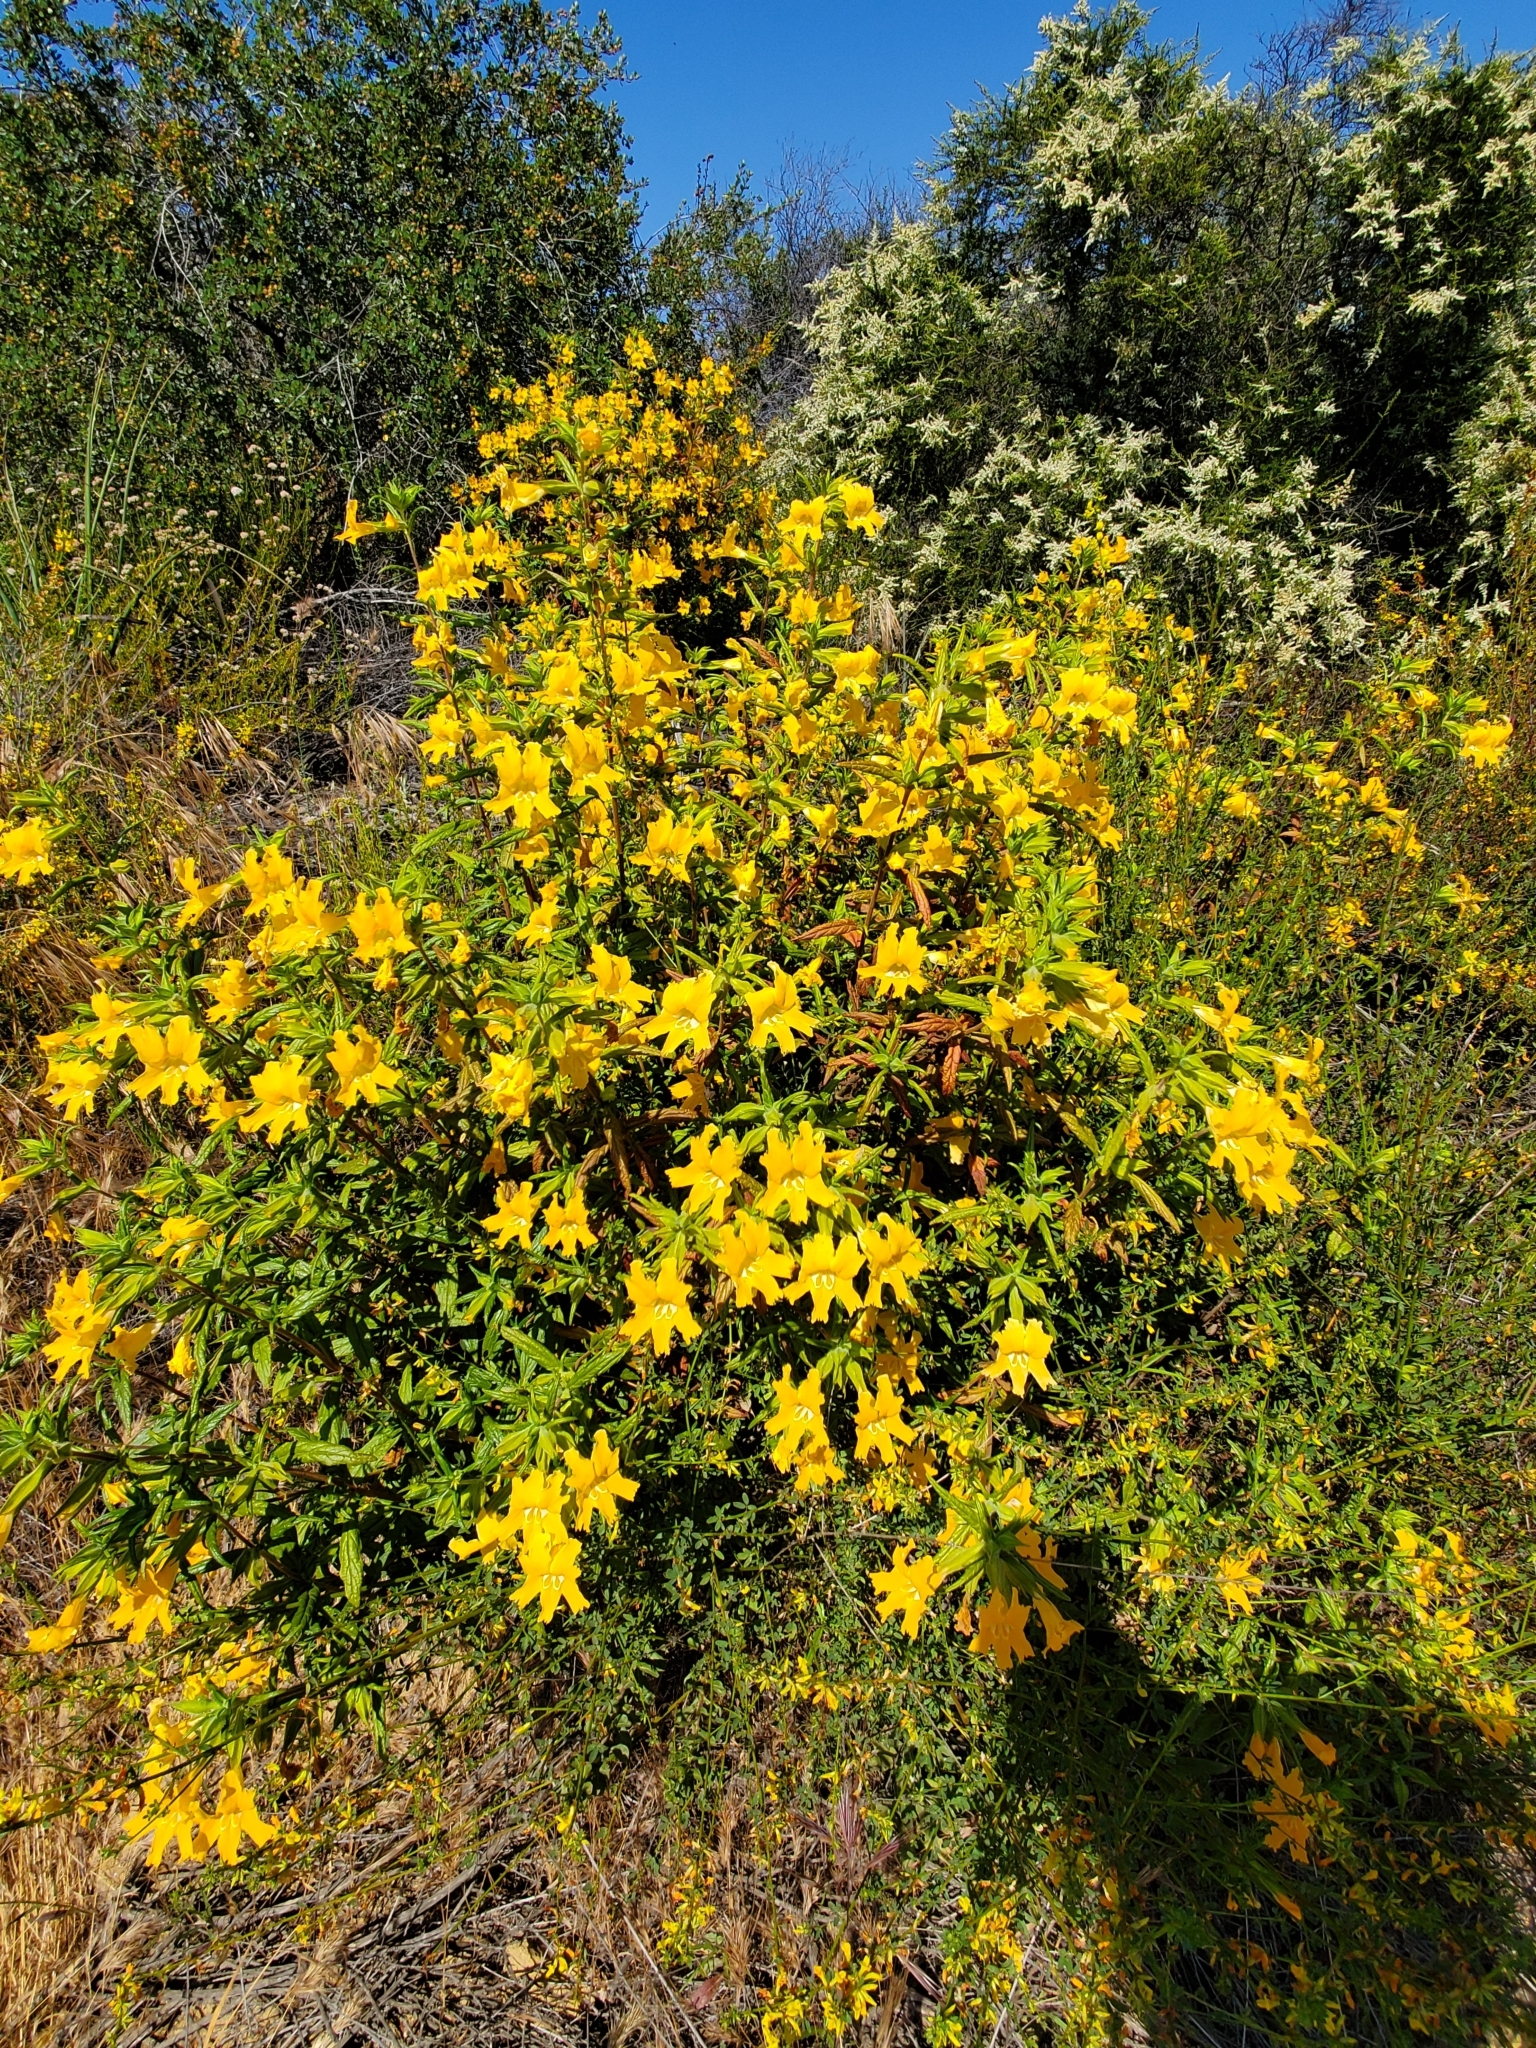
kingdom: Plantae
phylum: Tracheophyta
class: Magnoliopsida
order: Lamiales
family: Phrymaceae
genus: Diplacus
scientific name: Diplacus longiflorus
